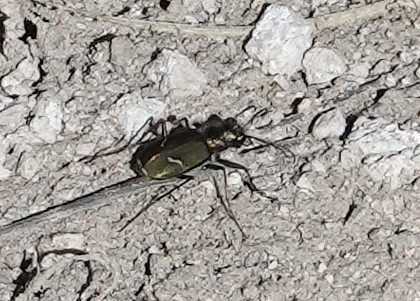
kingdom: Animalia
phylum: Arthropoda
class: Insecta
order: Coleoptera
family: Carabidae
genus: Cicindela
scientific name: Cicindela purpurea
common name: Cow path tiger beetle
